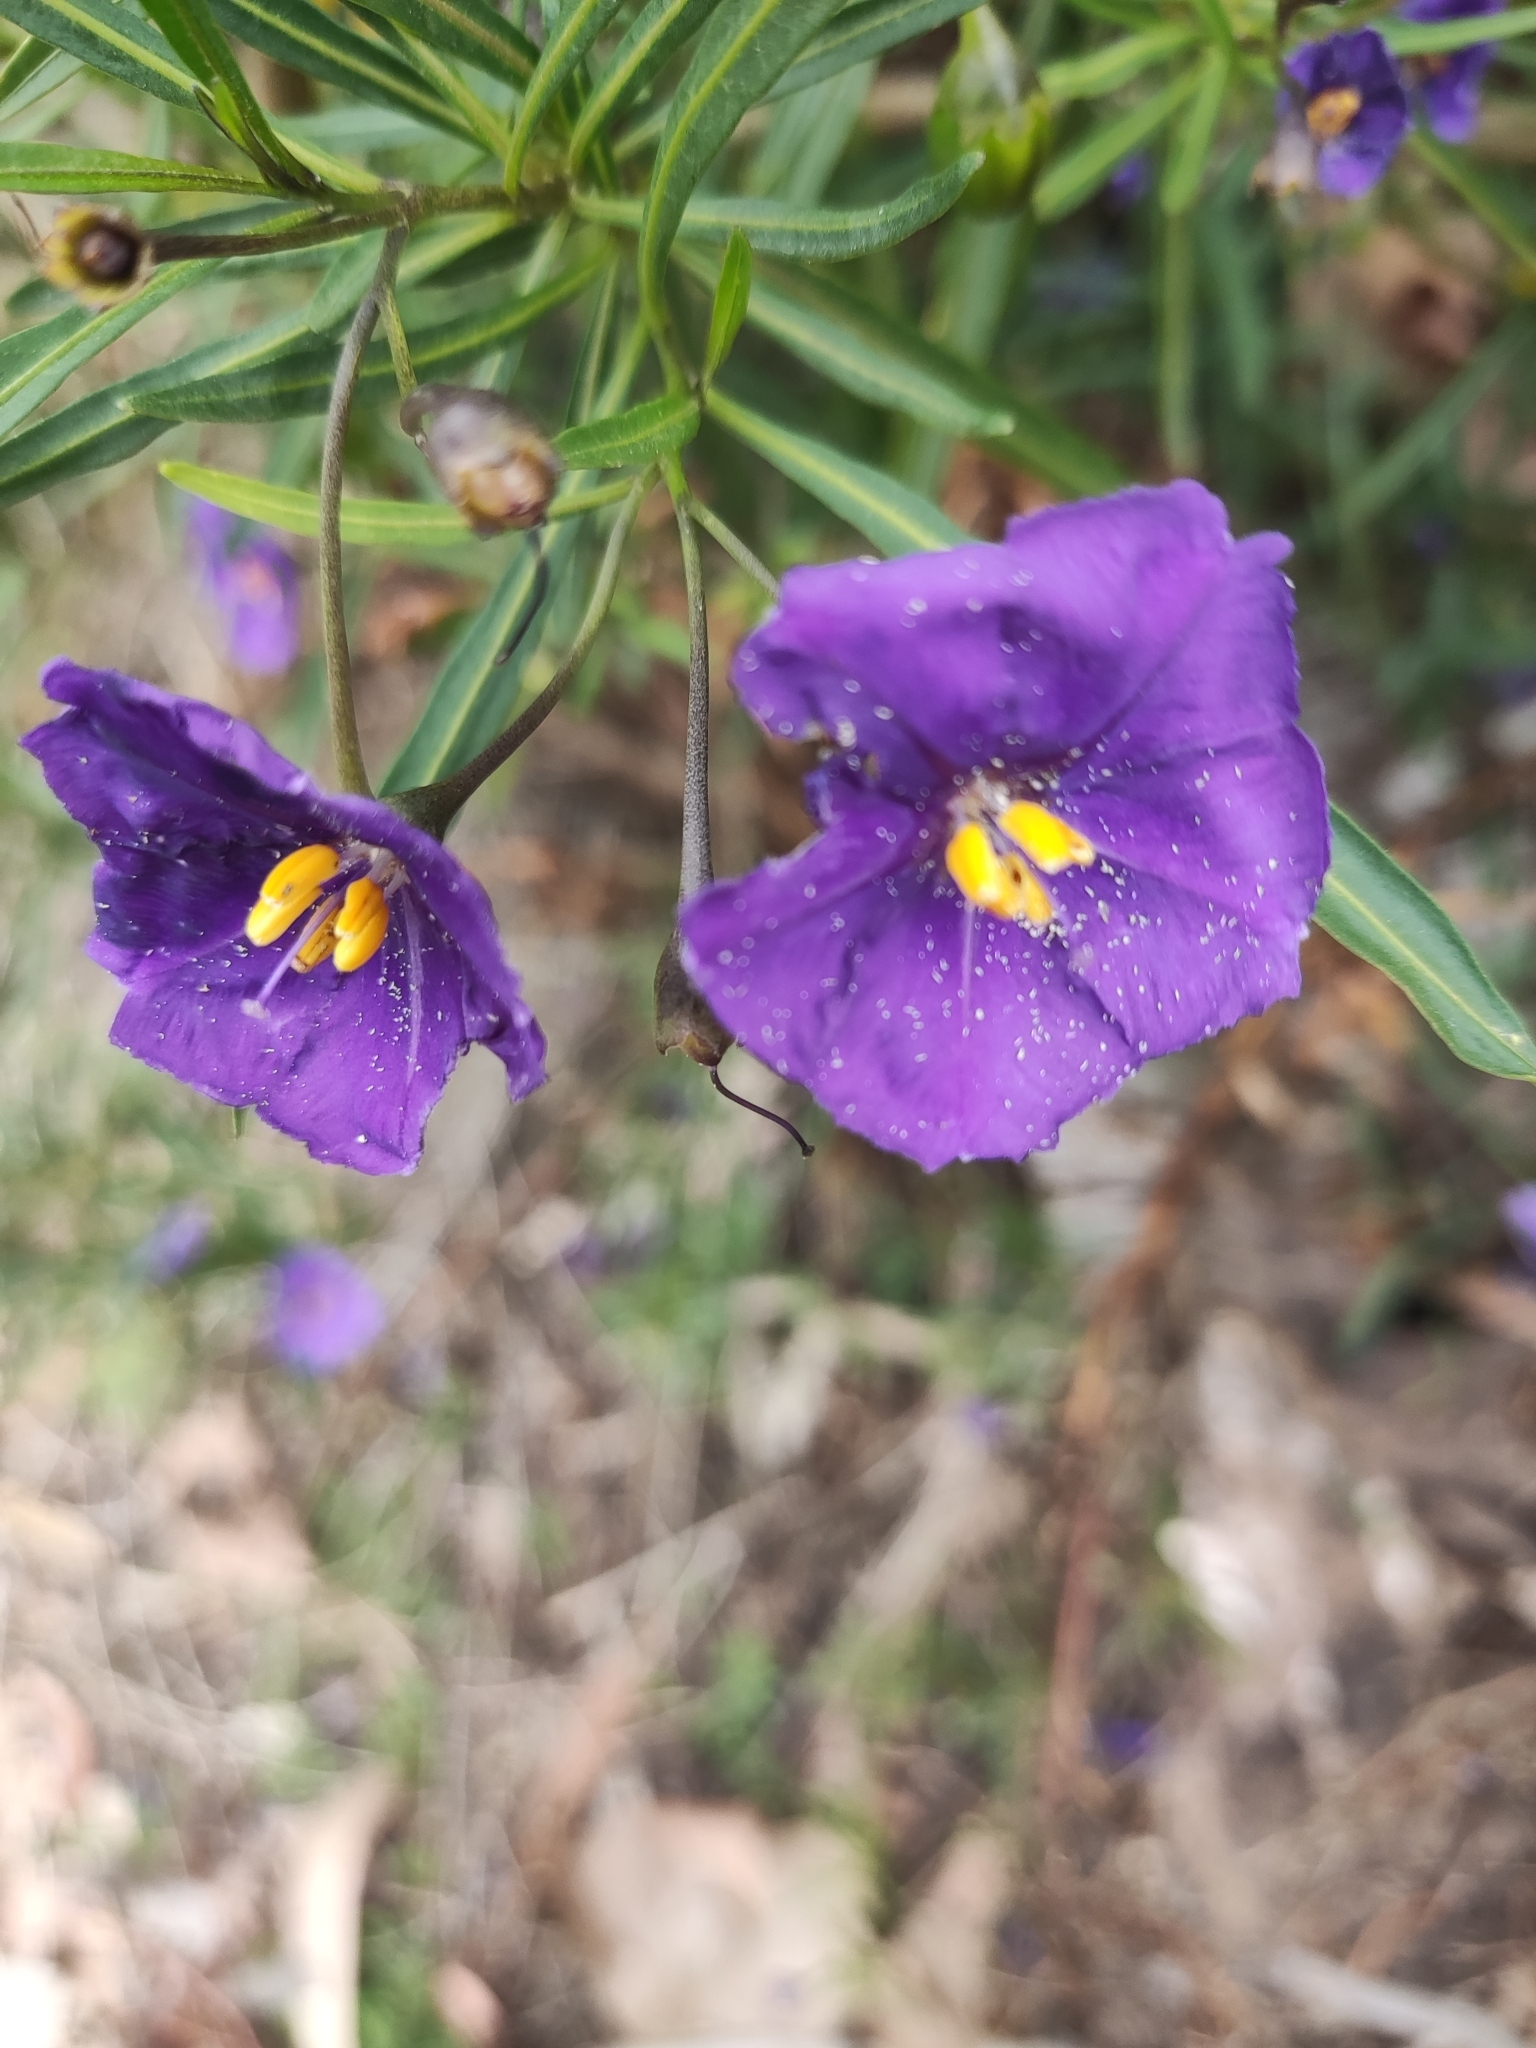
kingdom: Plantae
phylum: Tracheophyta
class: Magnoliopsida
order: Solanales
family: Solanaceae
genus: Solanum
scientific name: Solanum linearifolium
